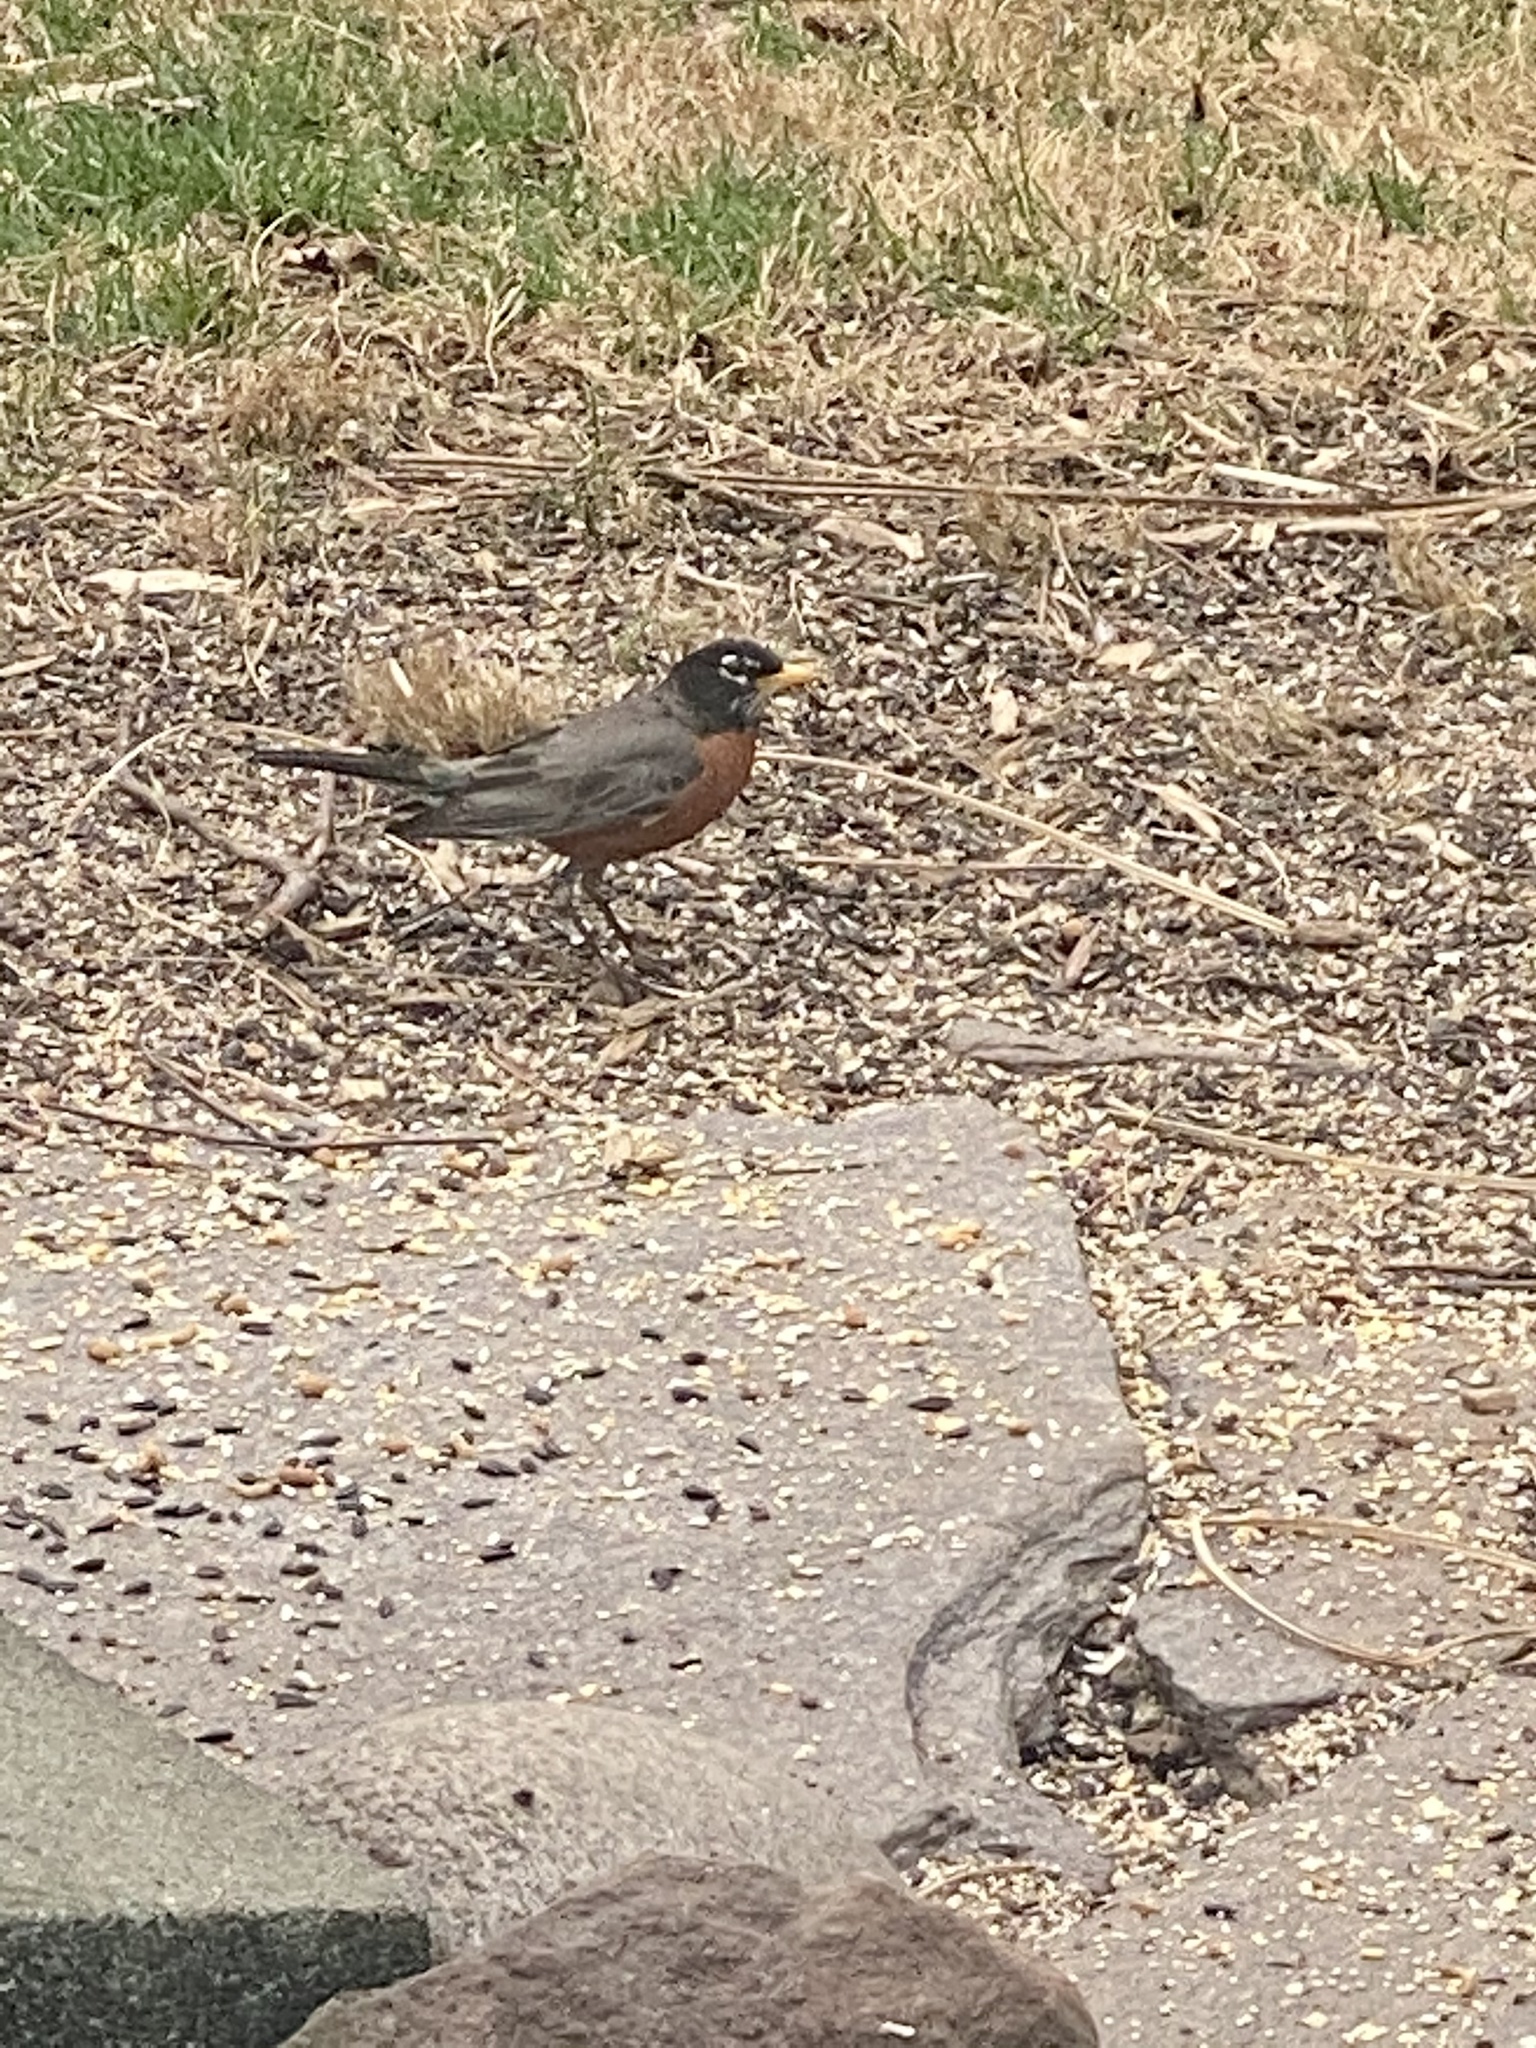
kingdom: Animalia
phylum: Chordata
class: Aves
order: Passeriformes
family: Turdidae
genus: Turdus
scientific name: Turdus migratorius
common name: American robin
